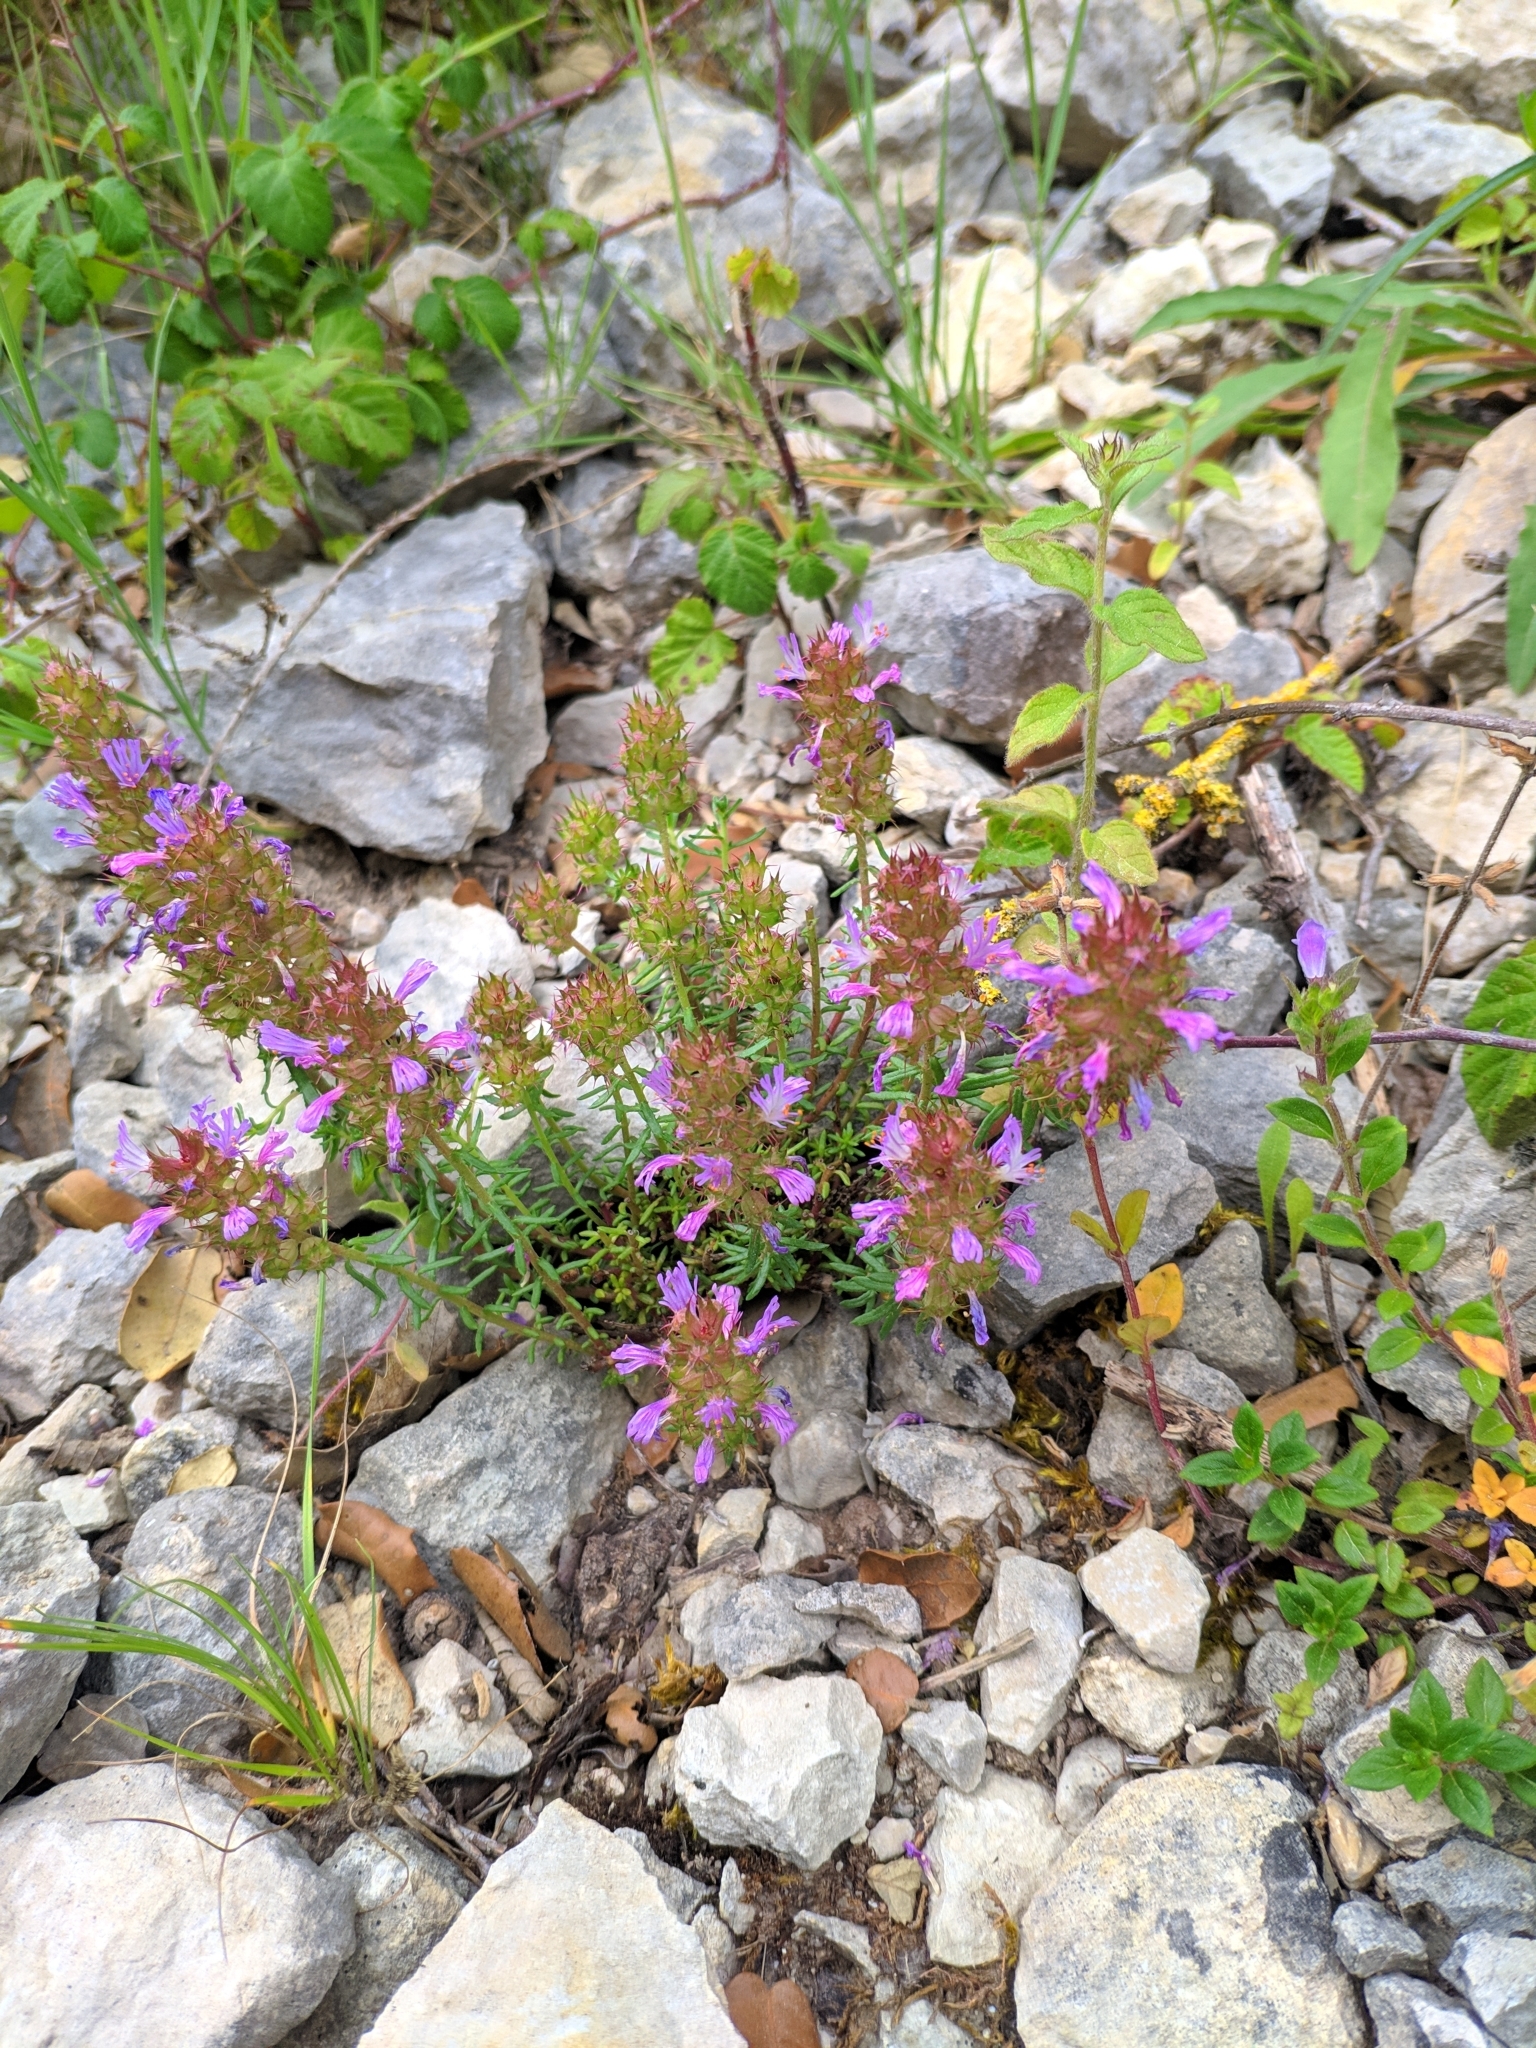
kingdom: Plantae
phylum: Tracheophyta
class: Magnoliopsida
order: Ericales
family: Primulaceae
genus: Coris
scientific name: Coris monspeliensis
